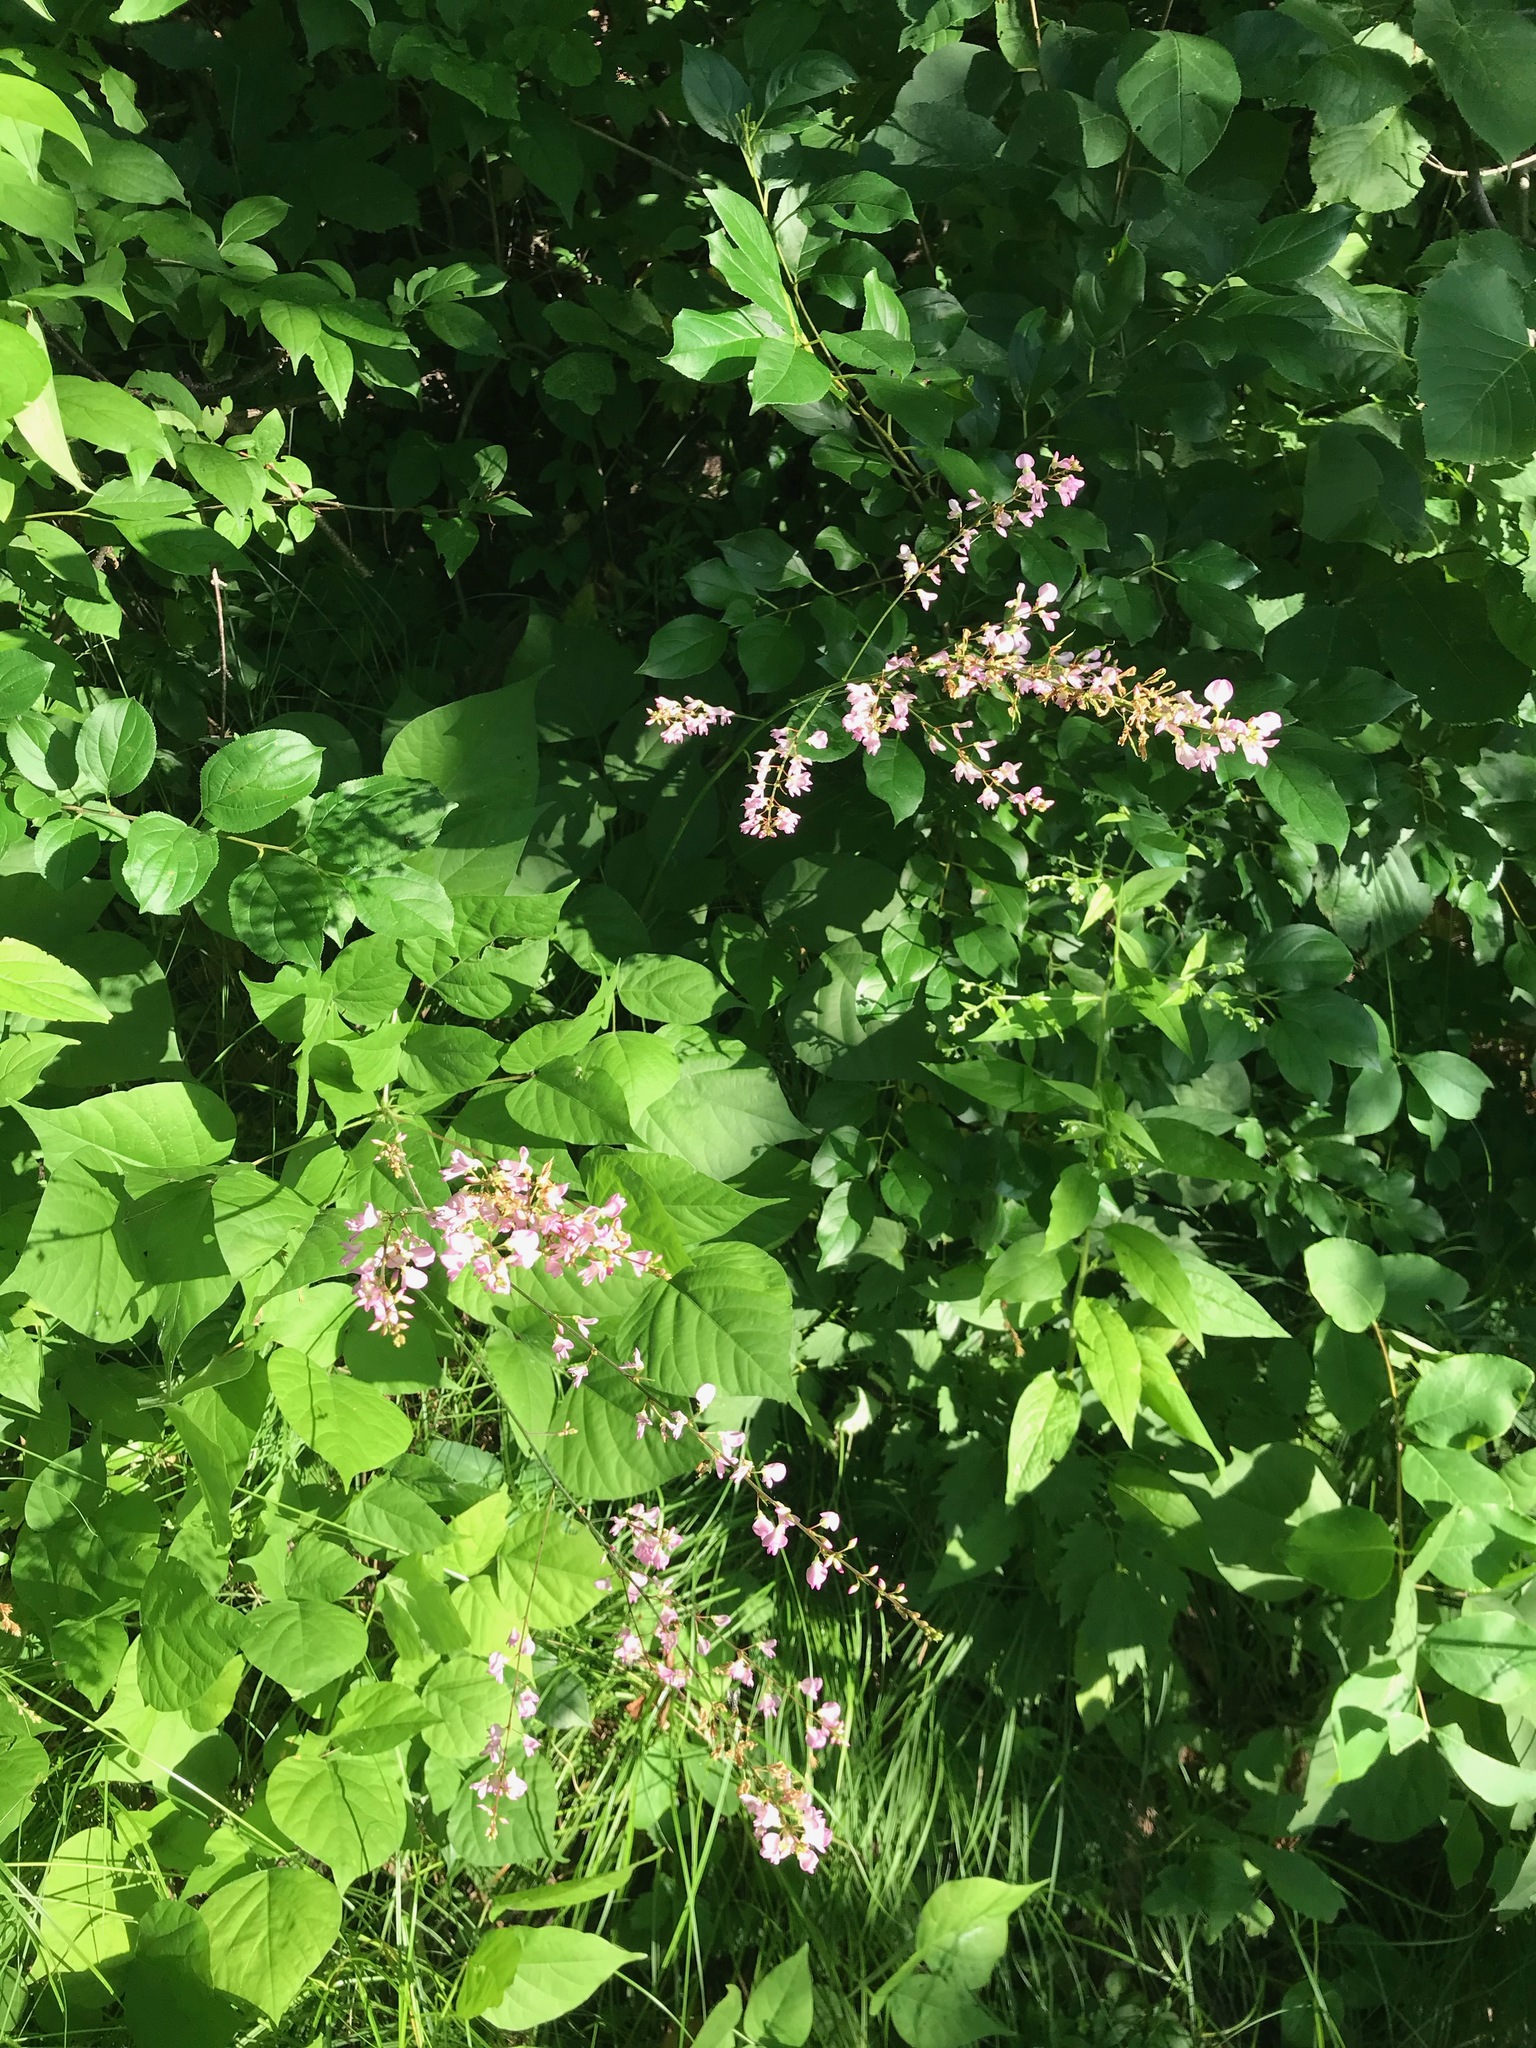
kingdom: Plantae
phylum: Tracheophyta
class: Magnoliopsida
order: Fabales
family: Fabaceae
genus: Hylodesmum
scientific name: Hylodesmum glutinosum
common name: Clustered-leaved tick-trefoil
